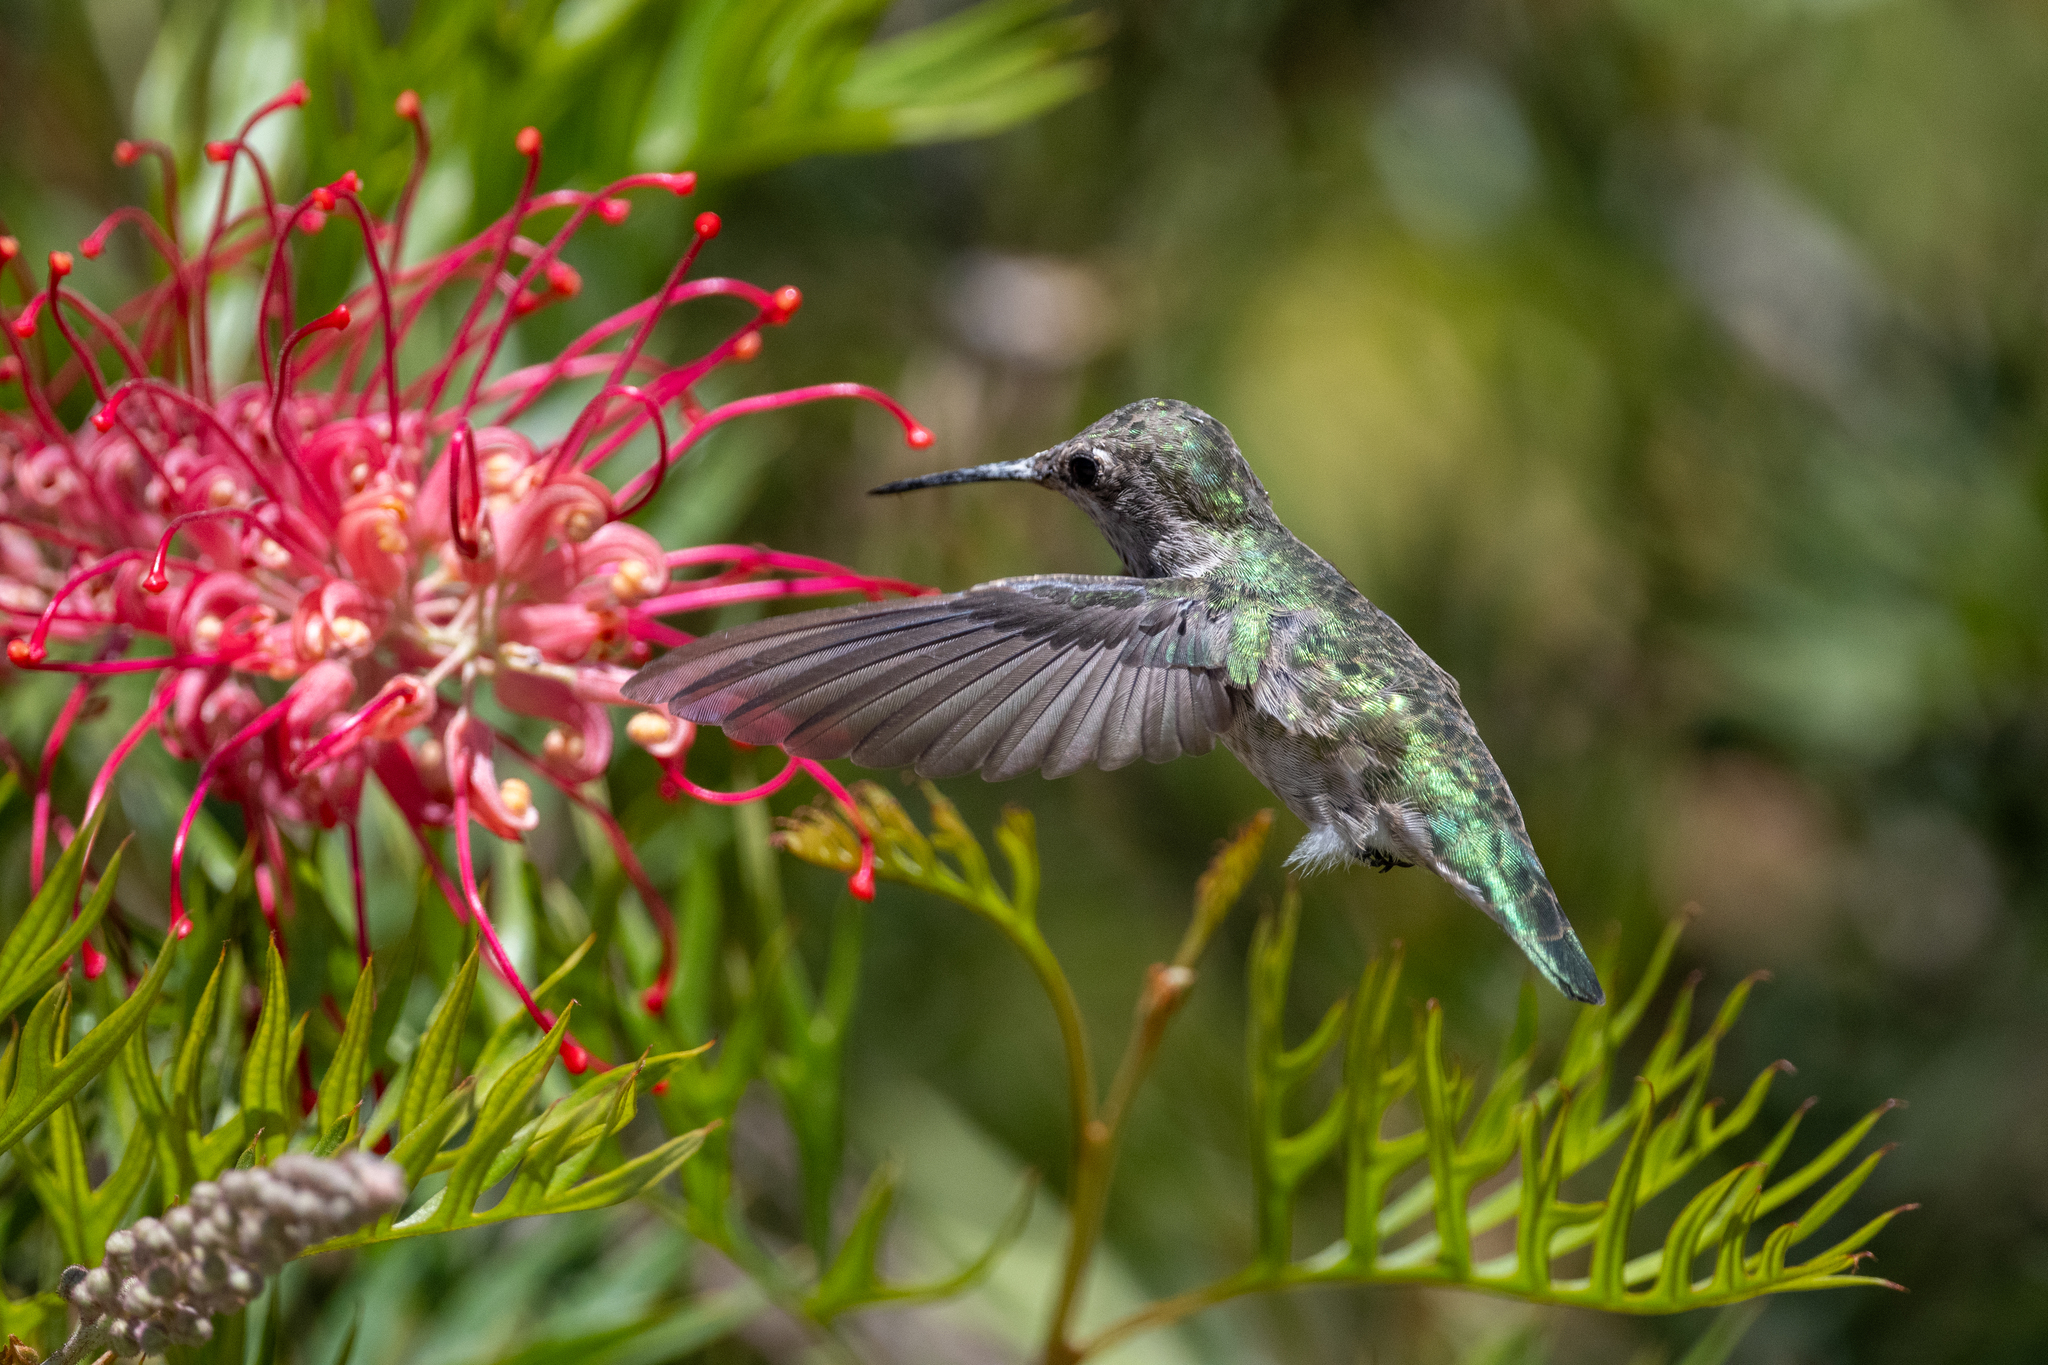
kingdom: Animalia
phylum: Chordata
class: Aves
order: Apodiformes
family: Trochilidae
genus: Calypte
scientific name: Calypte anna
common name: Anna's hummingbird
